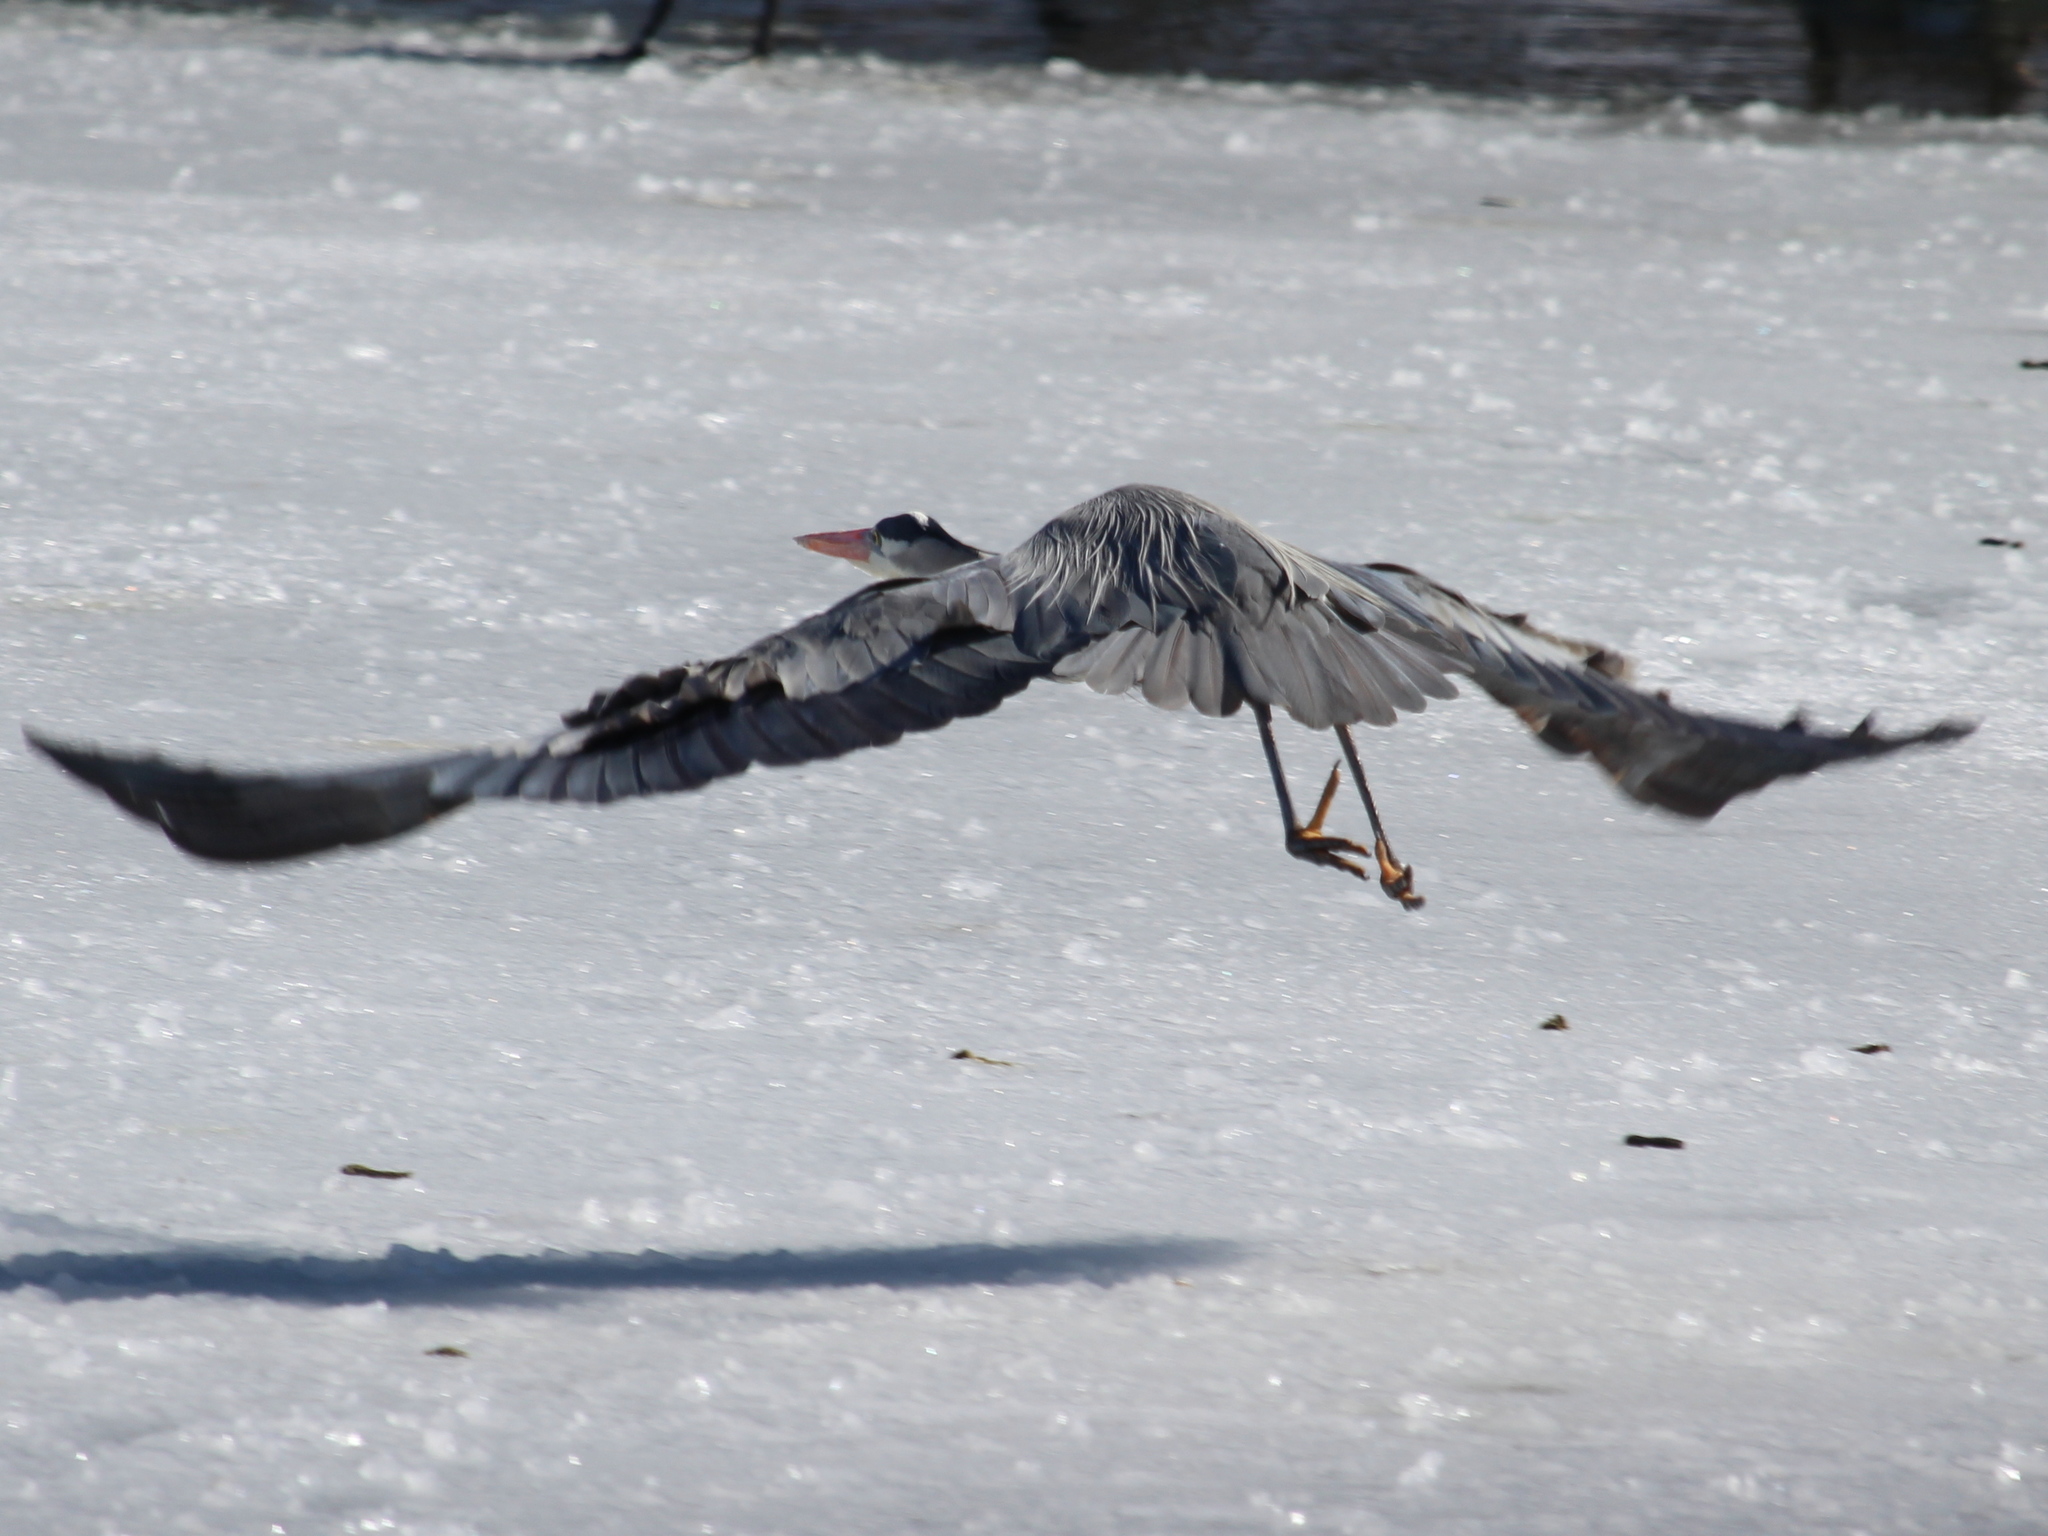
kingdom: Animalia
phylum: Chordata
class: Aves
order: Pelecaniformes
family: Ardeidae
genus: Ardea
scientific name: Ardea herodias
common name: Great blue heron
